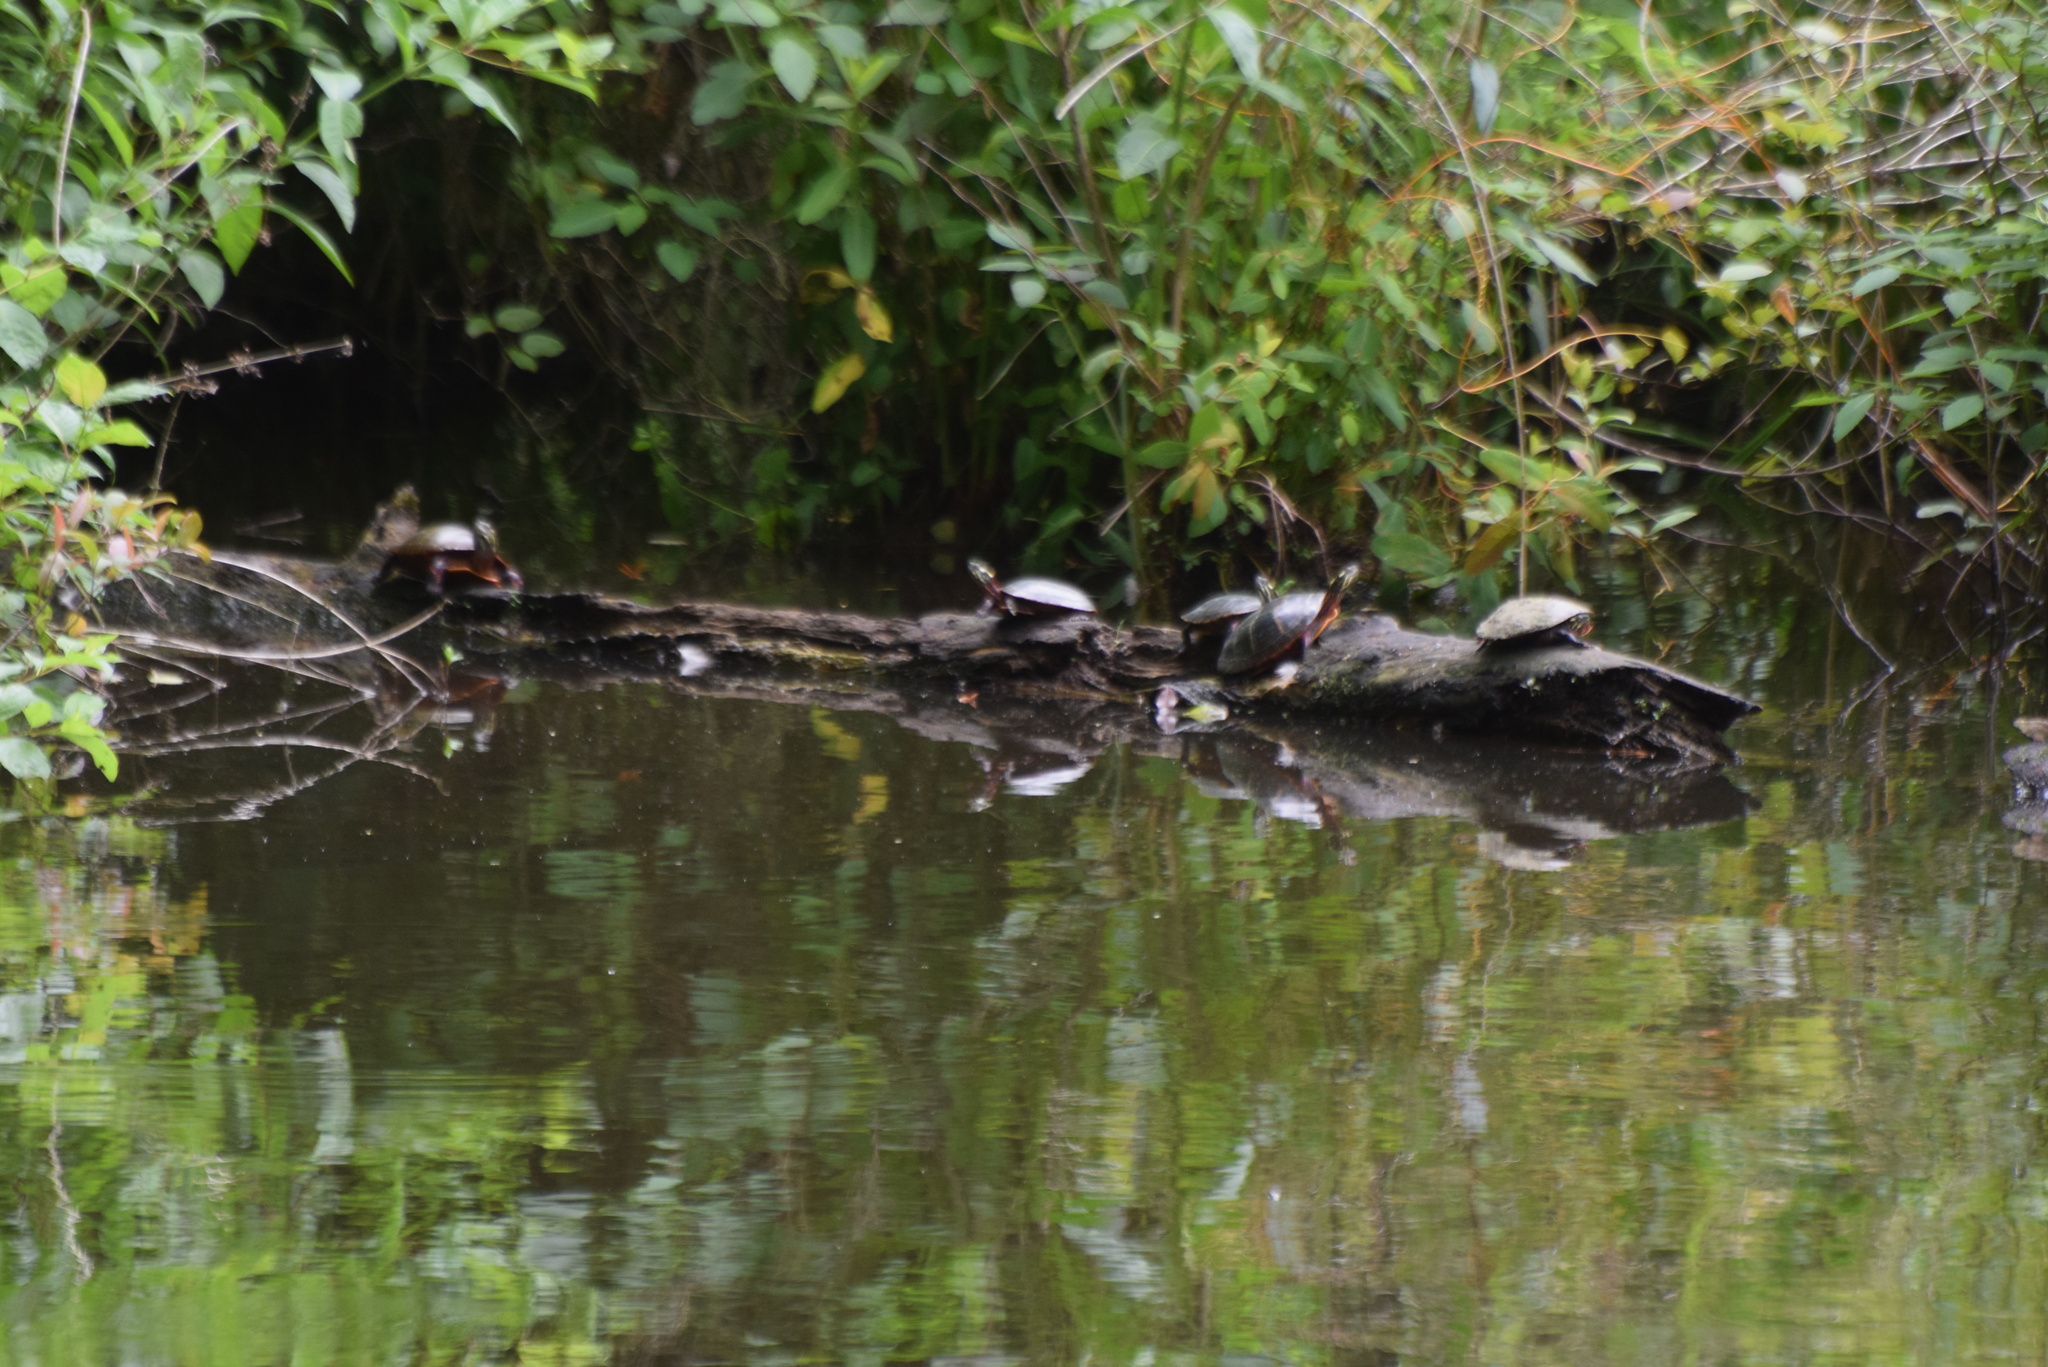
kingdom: Animalia
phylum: Chordata
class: Testudines
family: Emydidae
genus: Chrysemys
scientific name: Chrysemys picta
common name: Painted turtle
